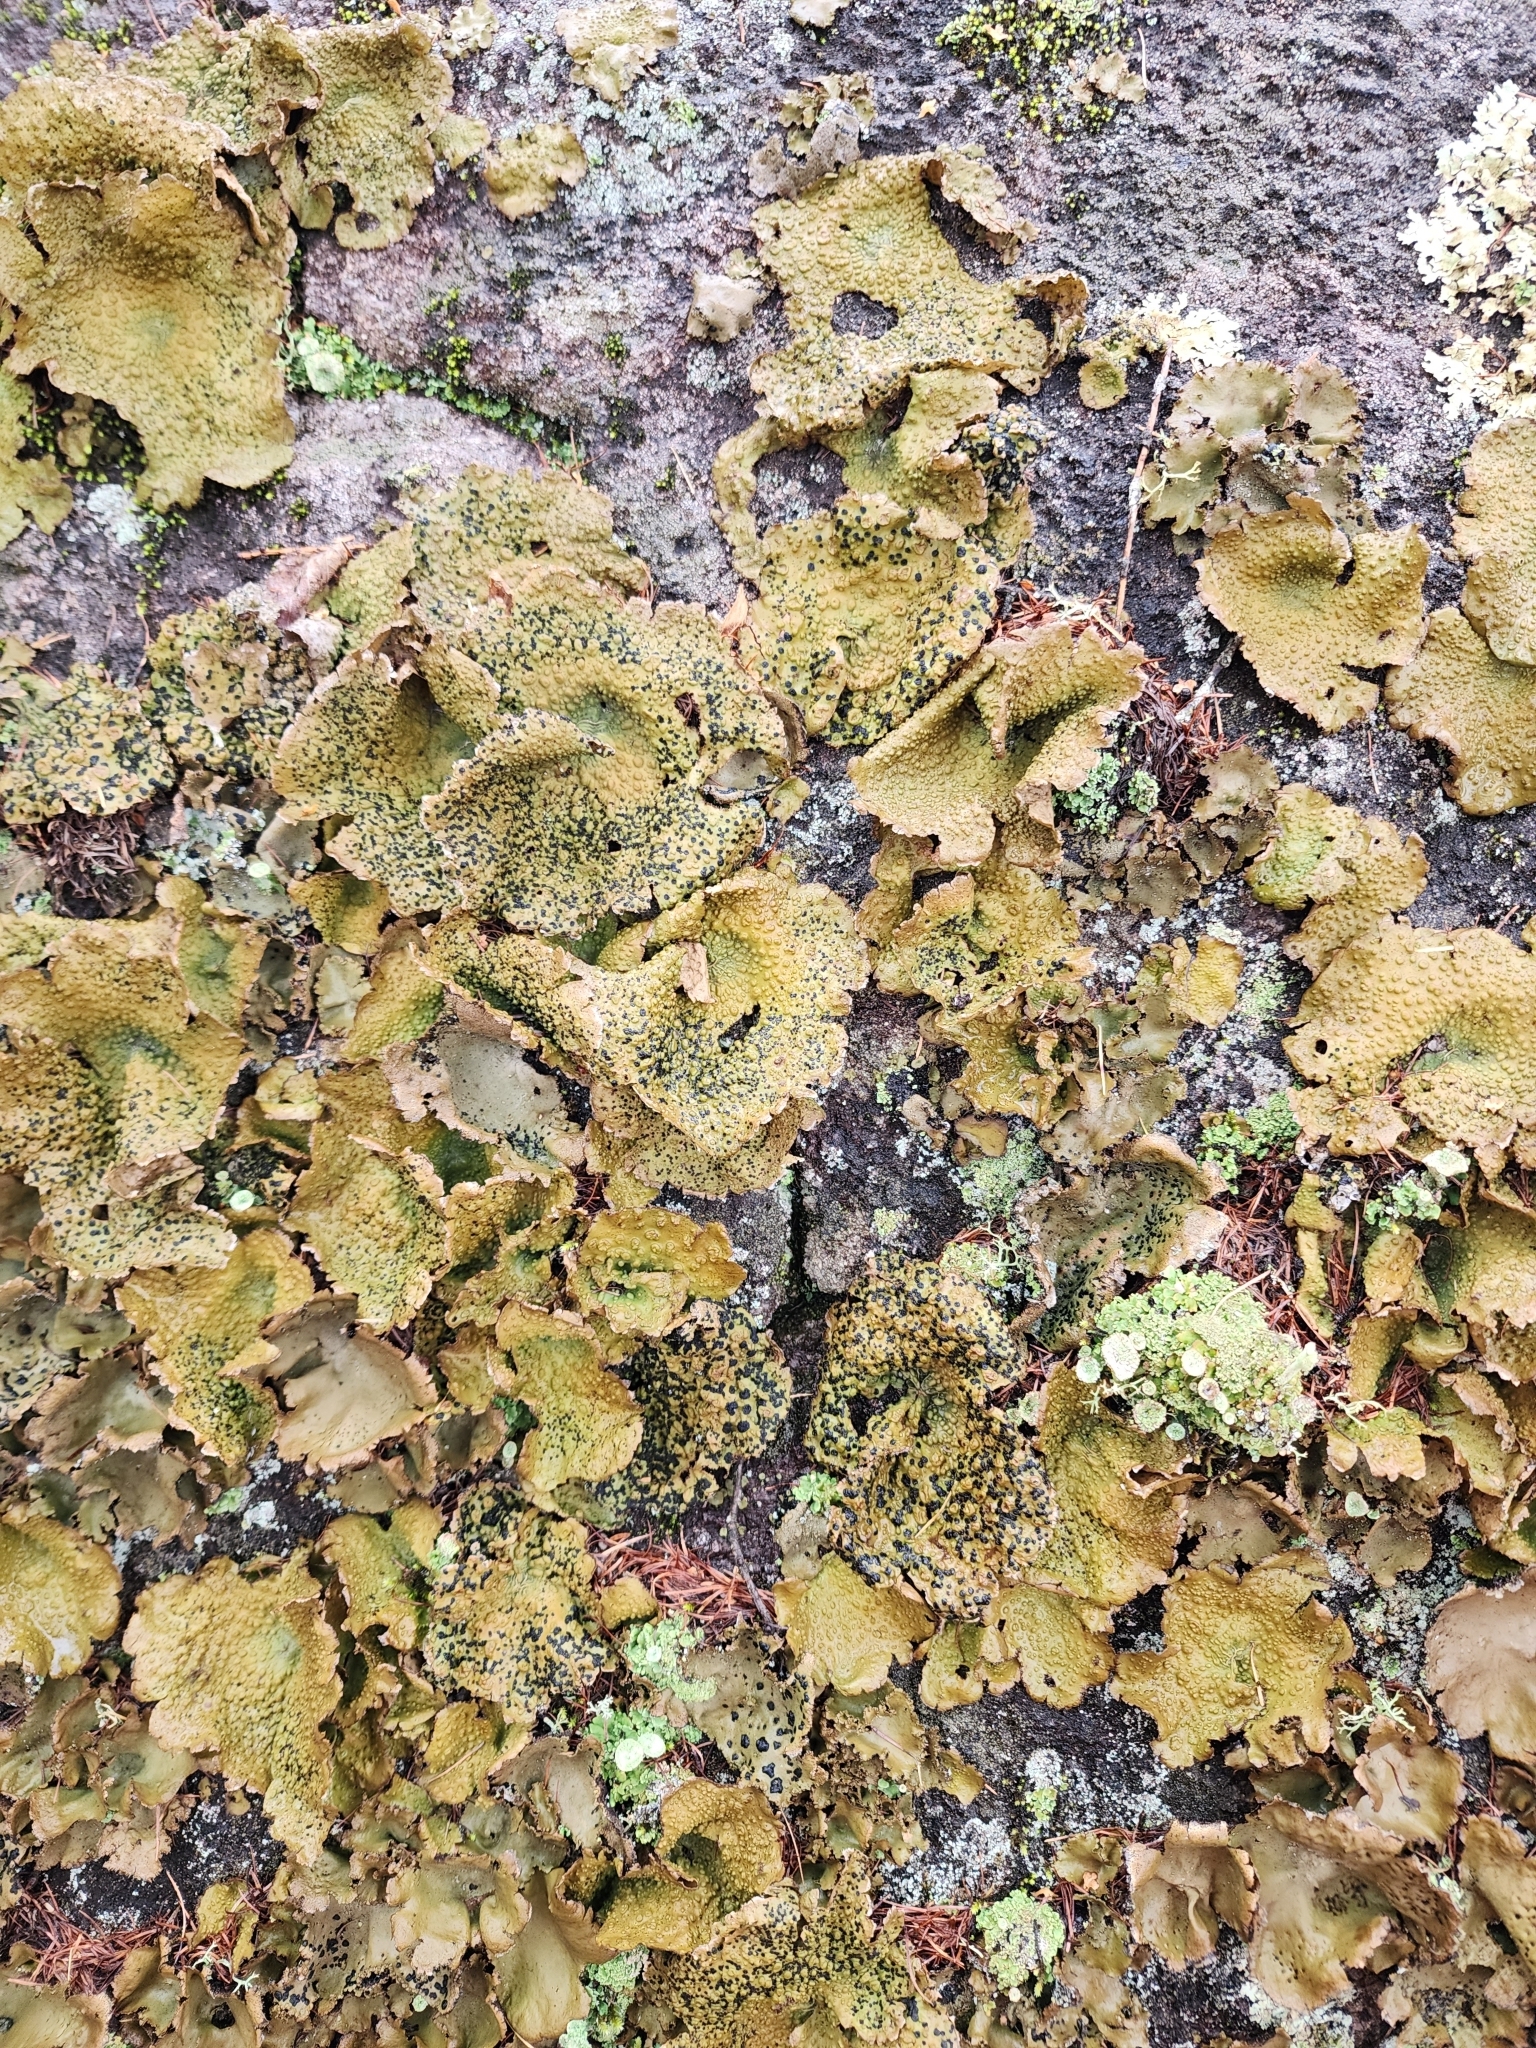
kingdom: Fungi
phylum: Ascomycota
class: Lecanoromycetes
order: Umbilicariales
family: Umbilicariaceae
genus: Lasallia
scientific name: Lasallia papulosa
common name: Common toadskin lichen
